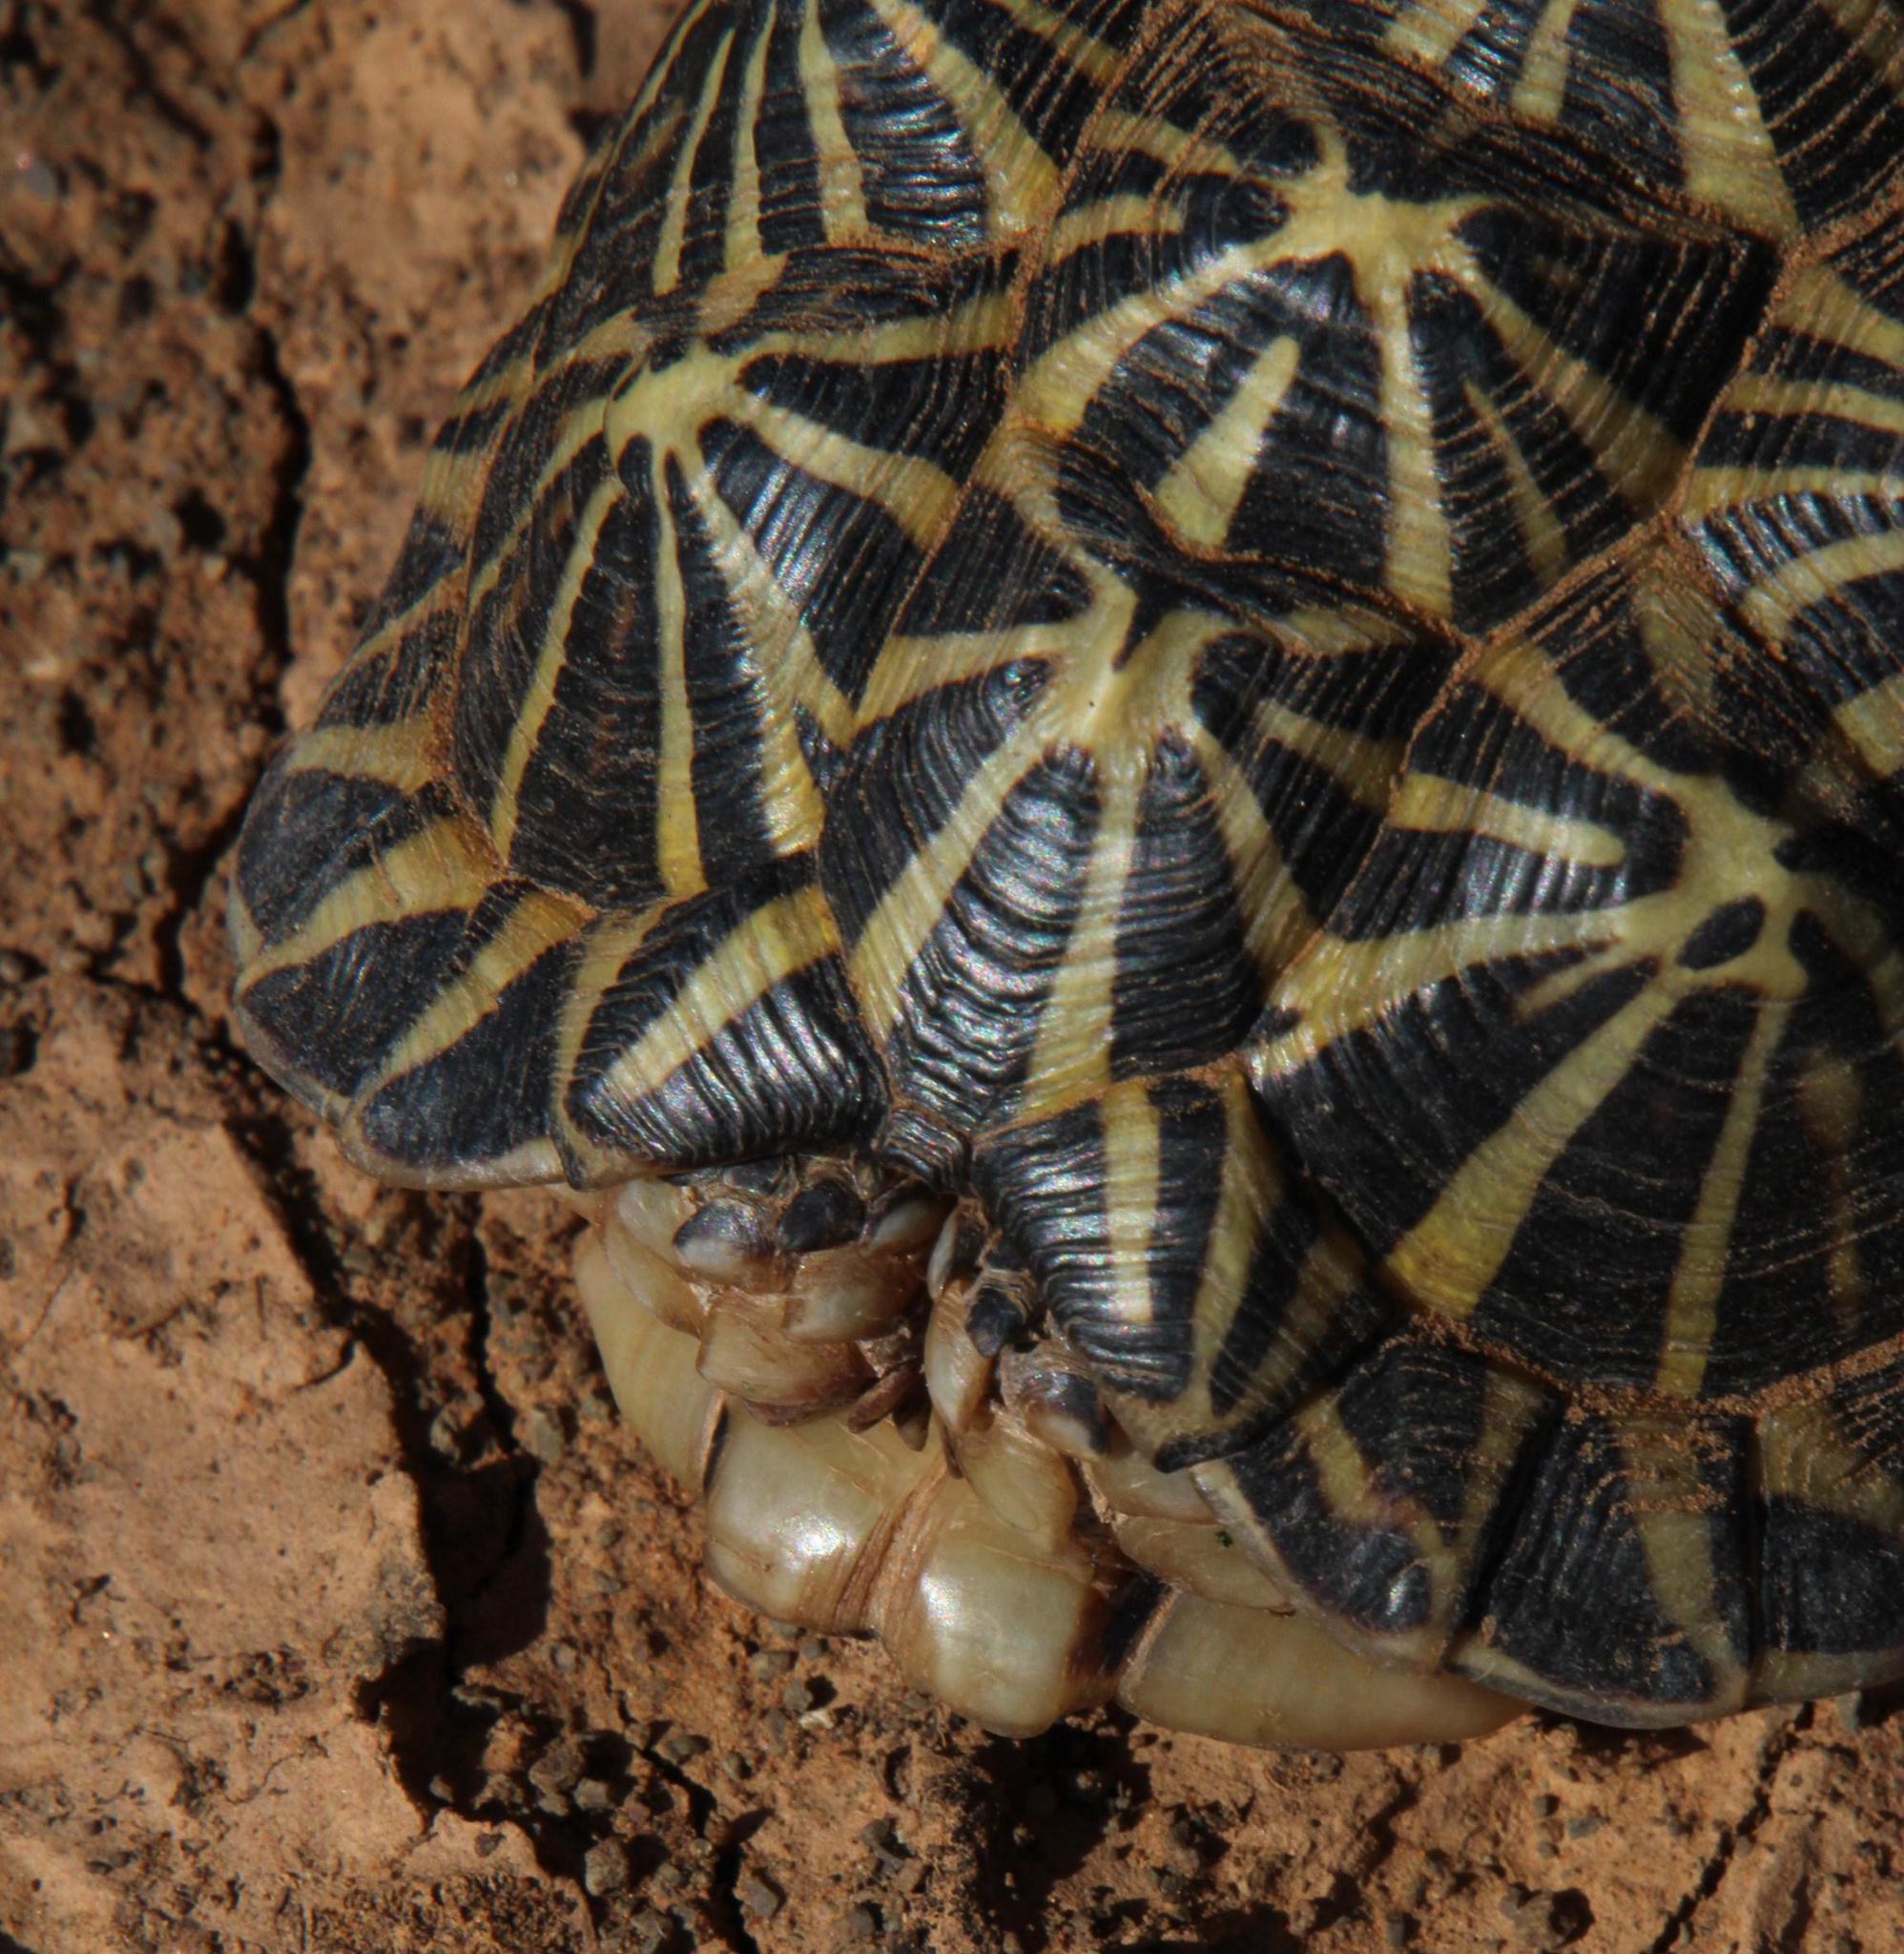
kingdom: Animalia
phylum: Chordata
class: Testudines
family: Testudinidae
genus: Psammobates
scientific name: Psammobates tentorius
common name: Tent tortoise
